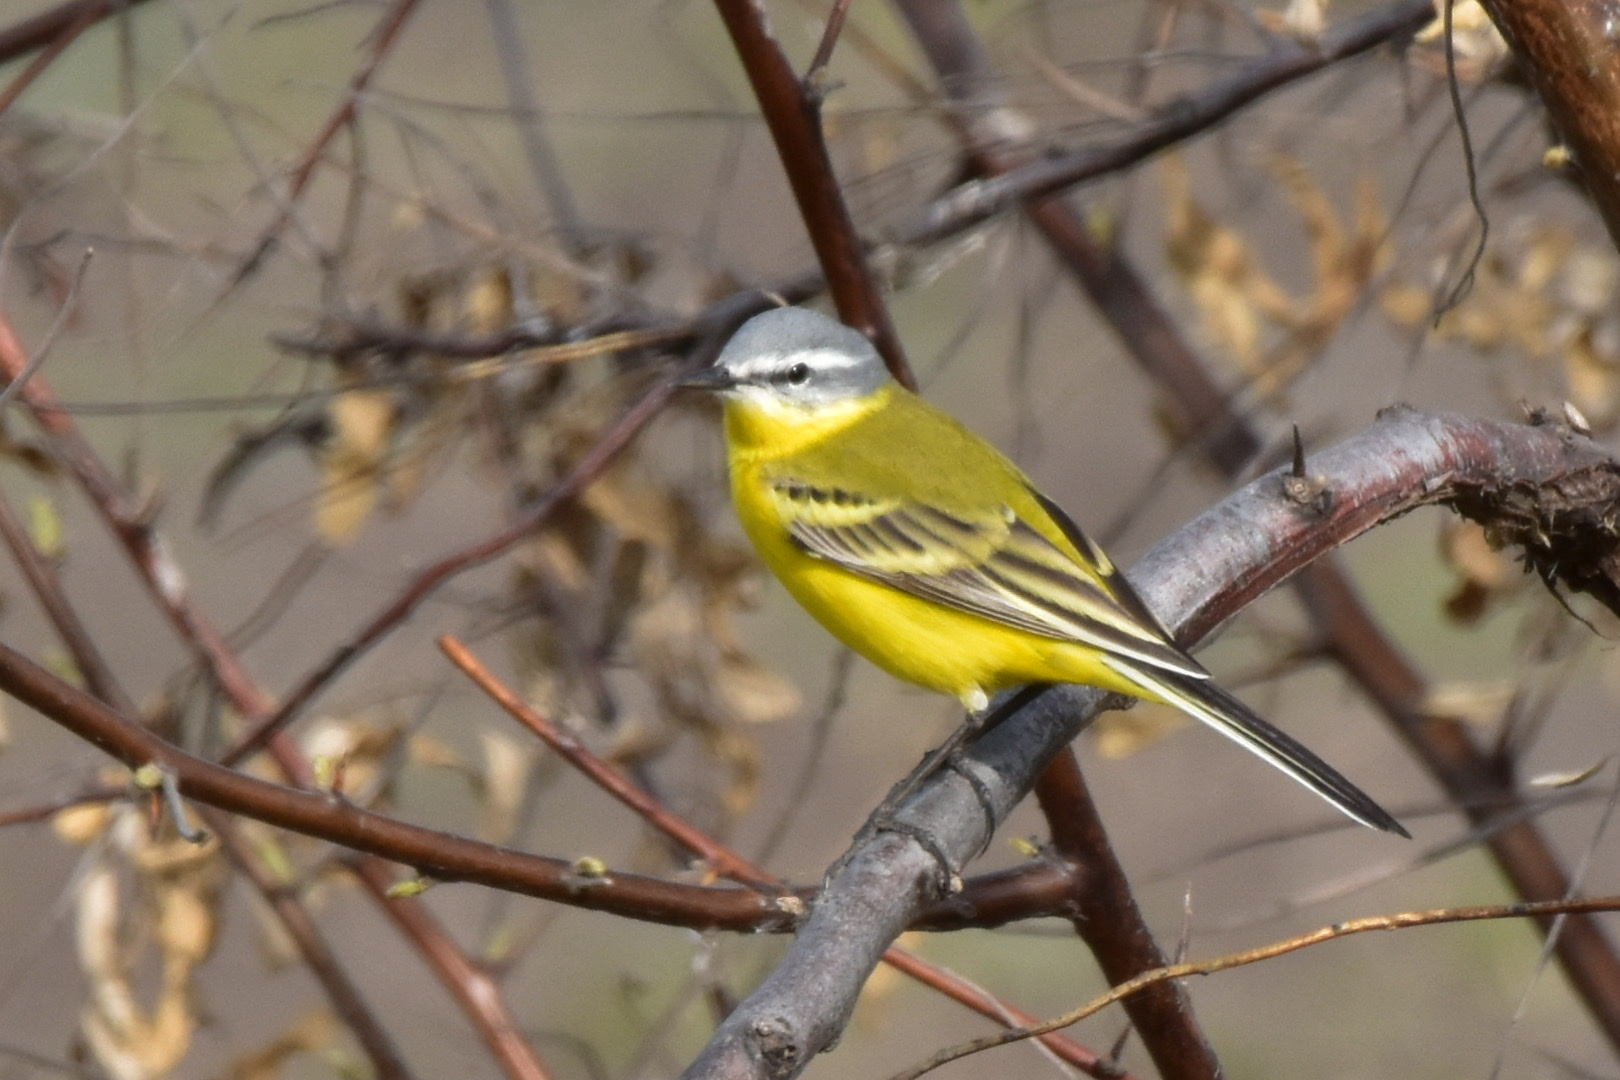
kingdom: Animalia
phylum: Chordata
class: Aves
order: Passeriformes
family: Motacillidae
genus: Motacilla
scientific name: Motacilla flava
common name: Western yellow wagtail
